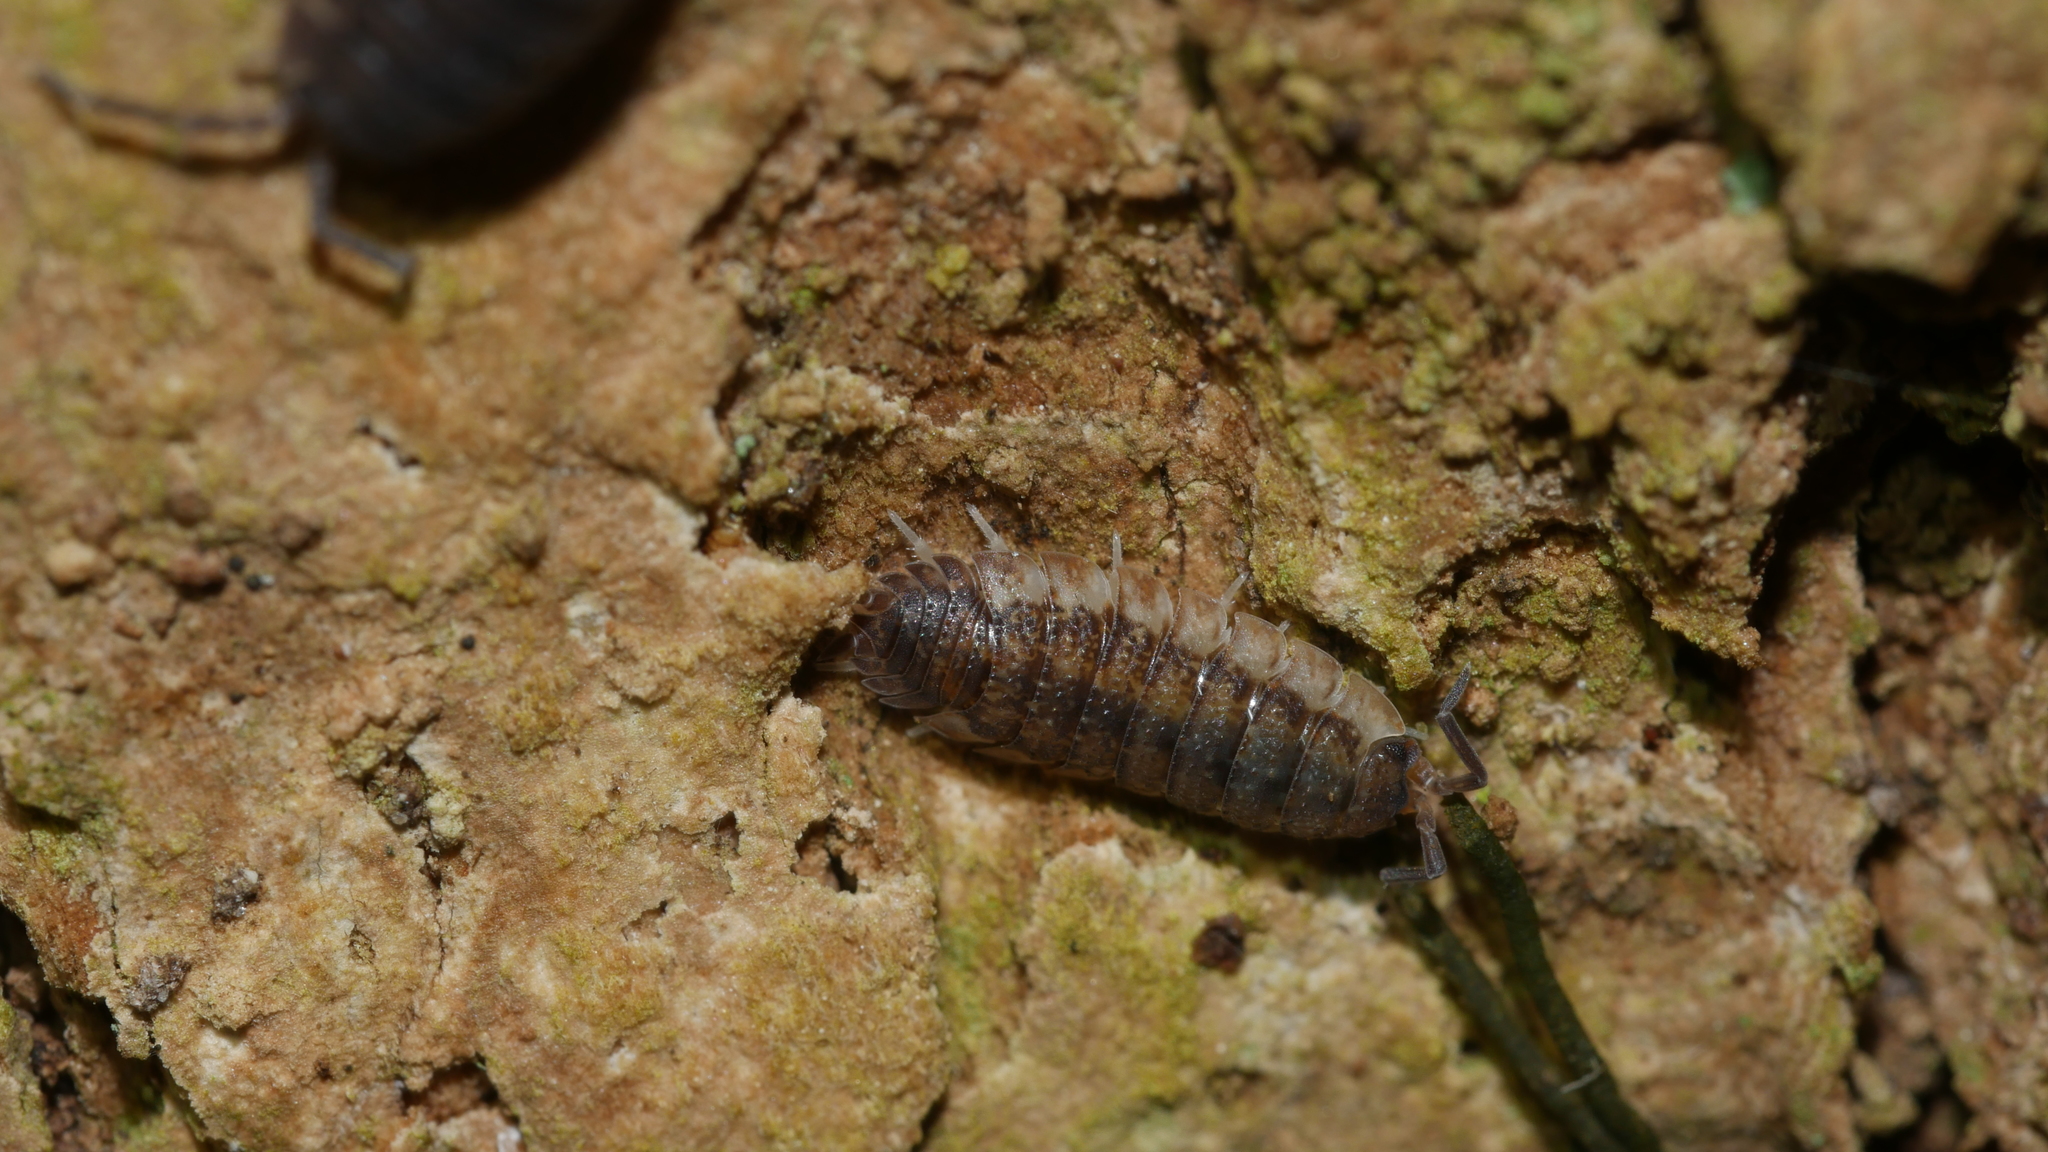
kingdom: Animalia
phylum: Arthropoda
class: Malacostraca
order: Isopoda
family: Porcellionidae
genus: Porcellio
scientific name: Porcellio scaber
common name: Common rough woodlouse
